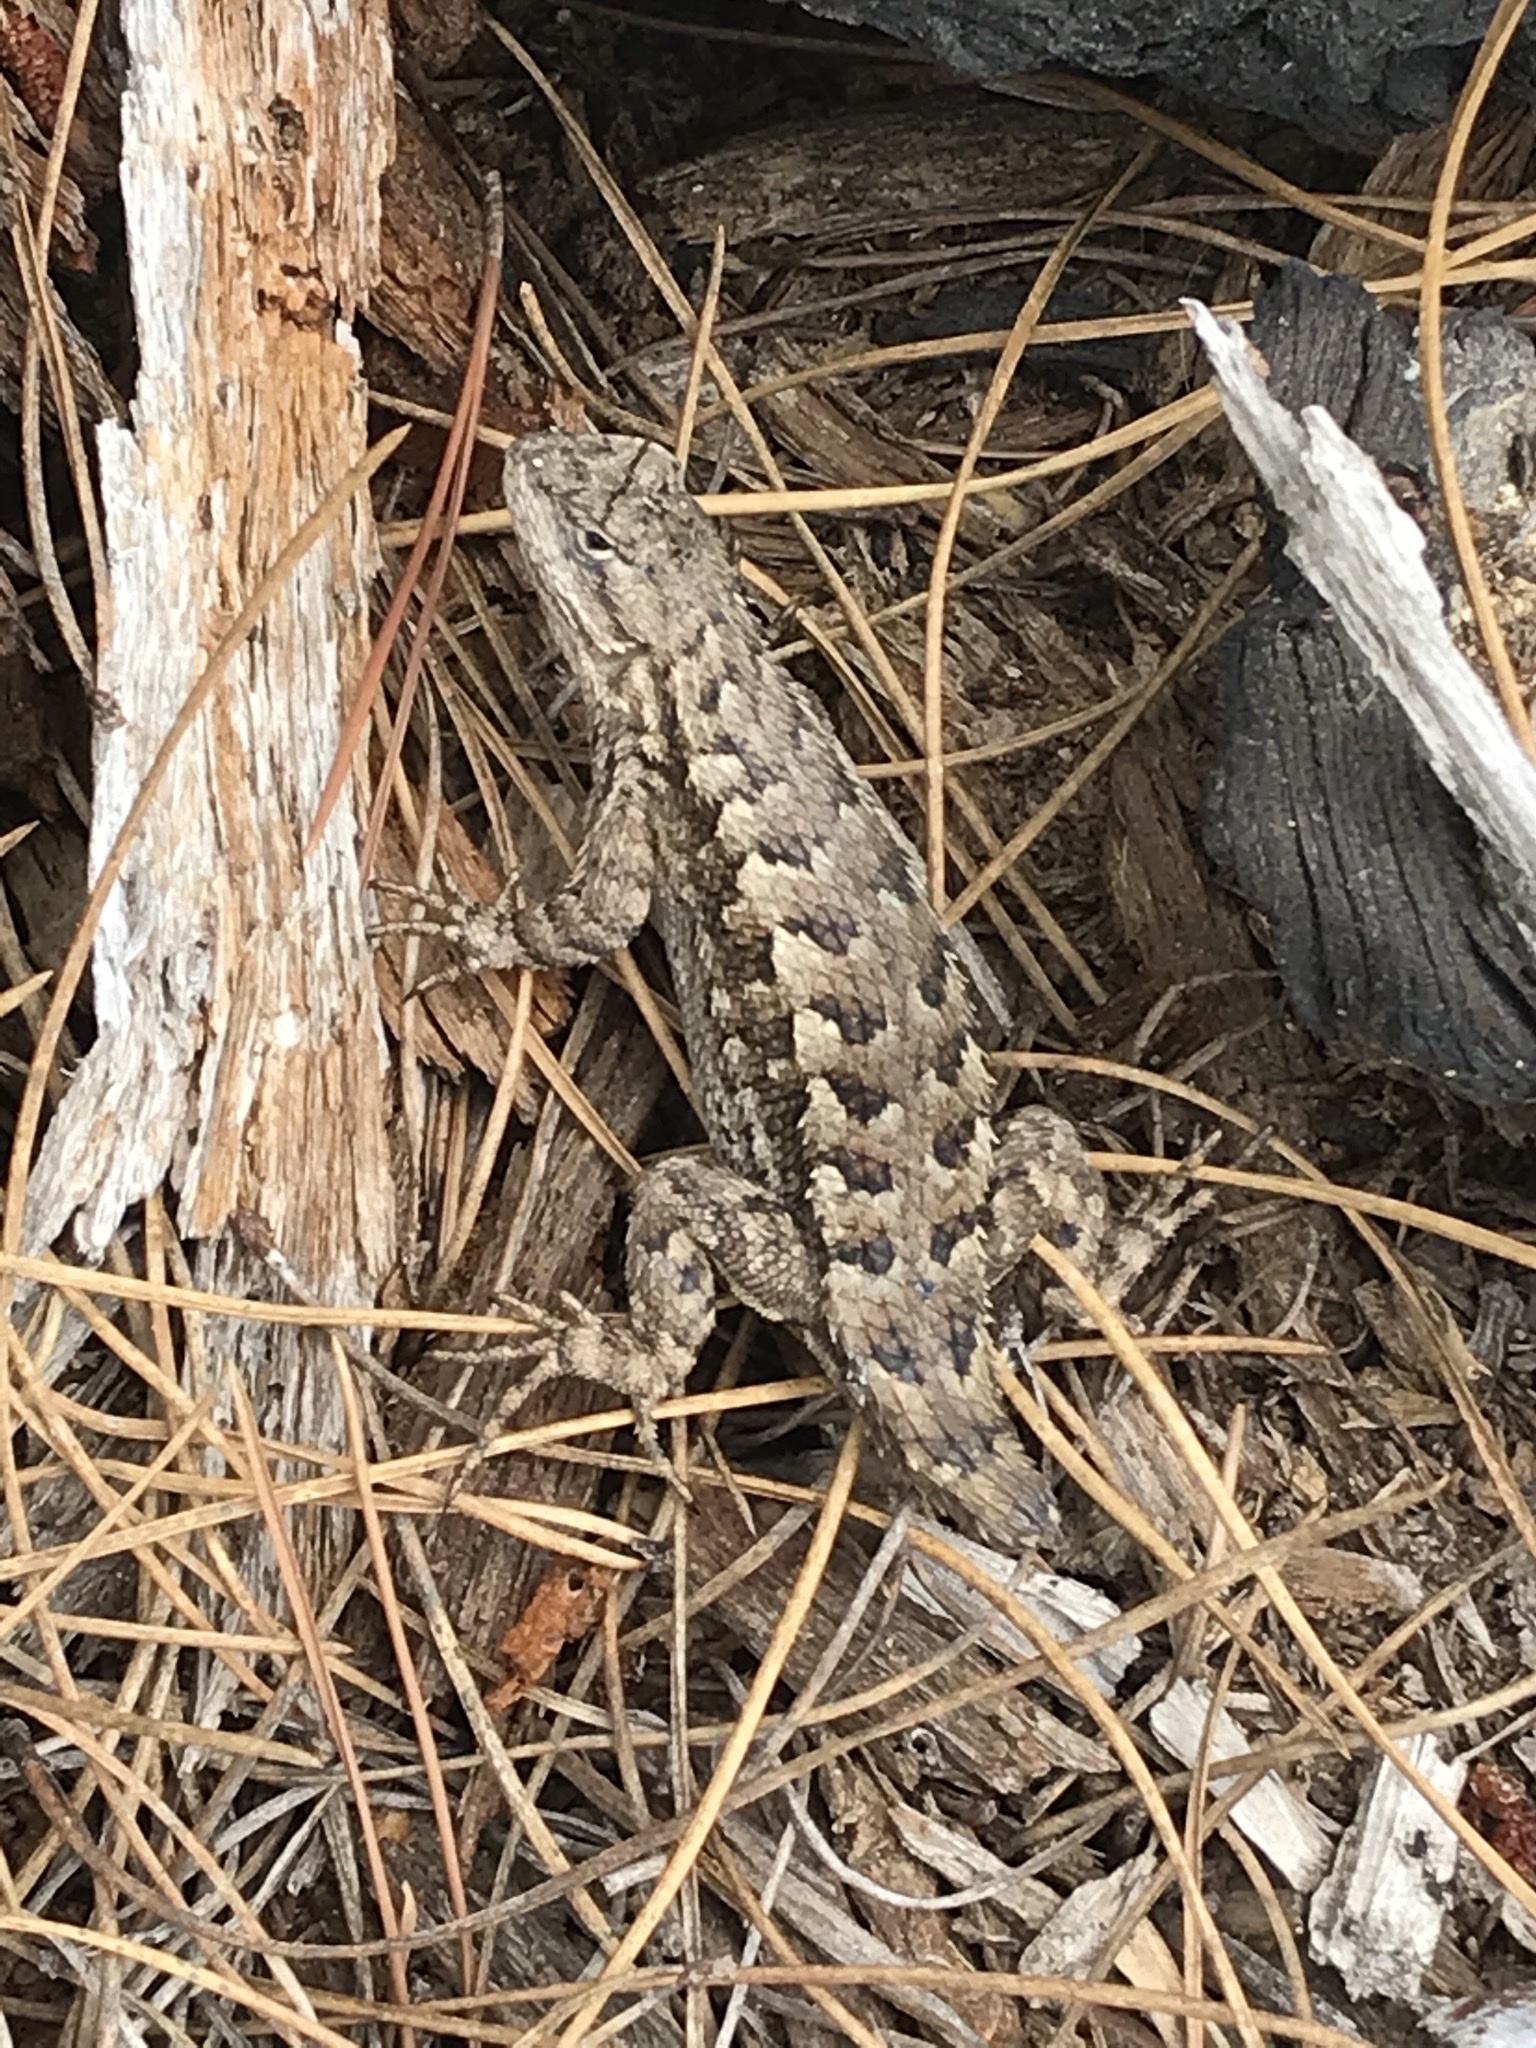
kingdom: Animalia
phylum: Chordata
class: Squamata
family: Phrynosomatidae
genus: Sceloporus
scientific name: Sceloporus occidentalis
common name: Western fence lizard
